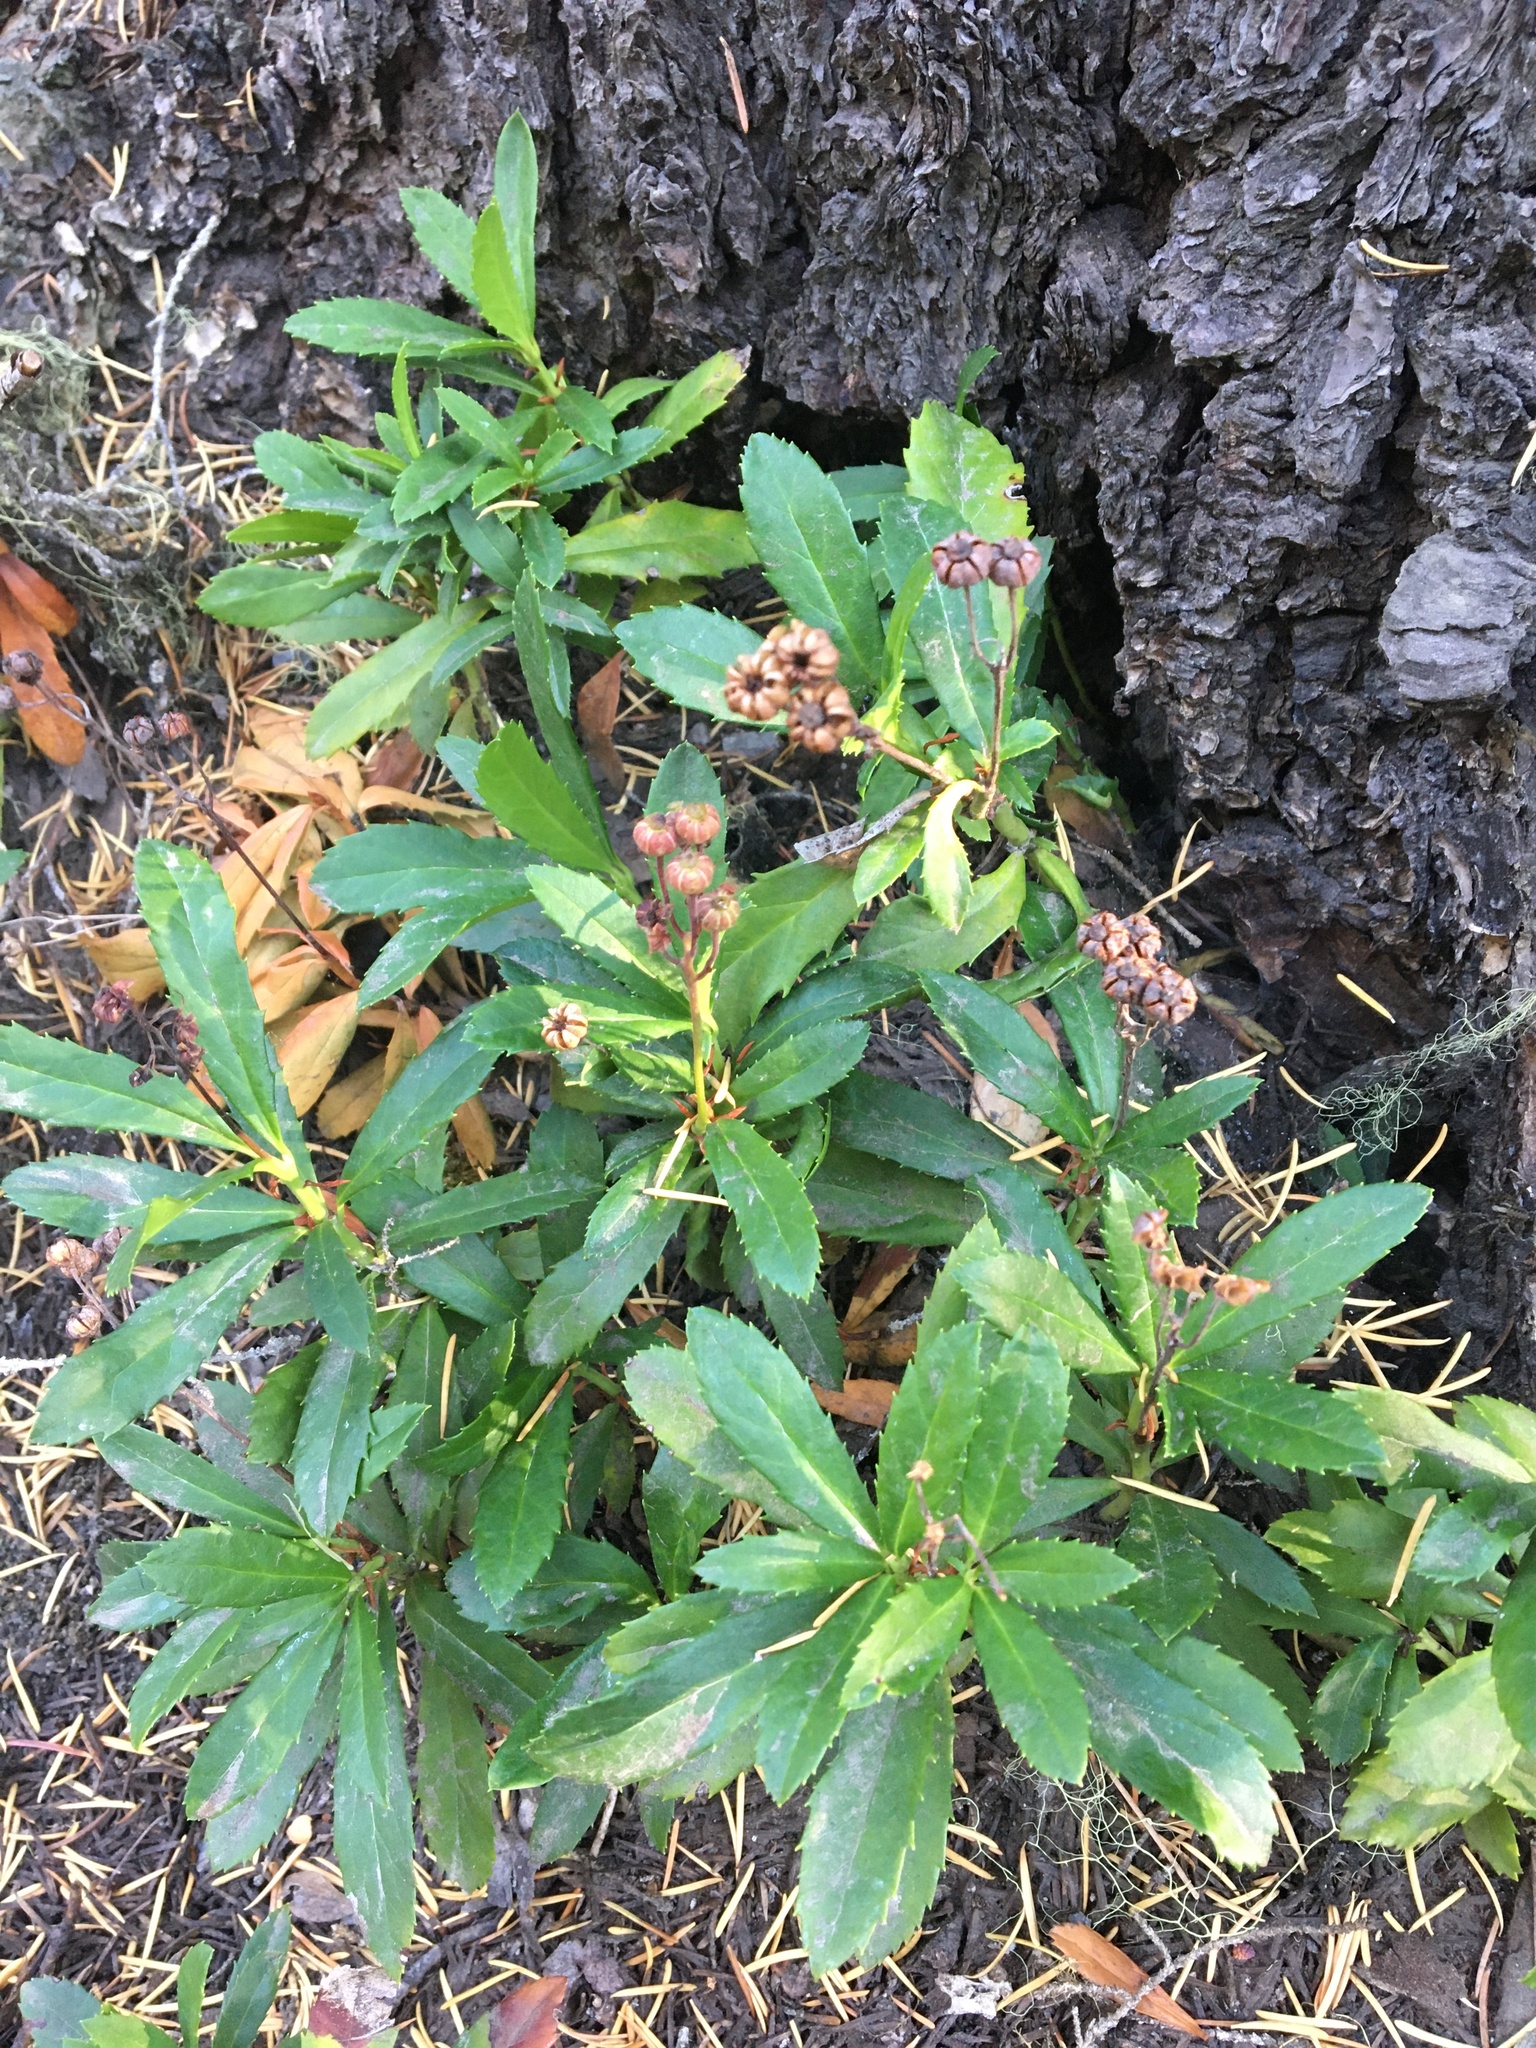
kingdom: Plantae
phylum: Tracheophyta
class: Magnoliopsida
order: Ericales
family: Ericaceae
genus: Chimaphila
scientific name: Chimaphila umbellata
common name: Pipsissewa
